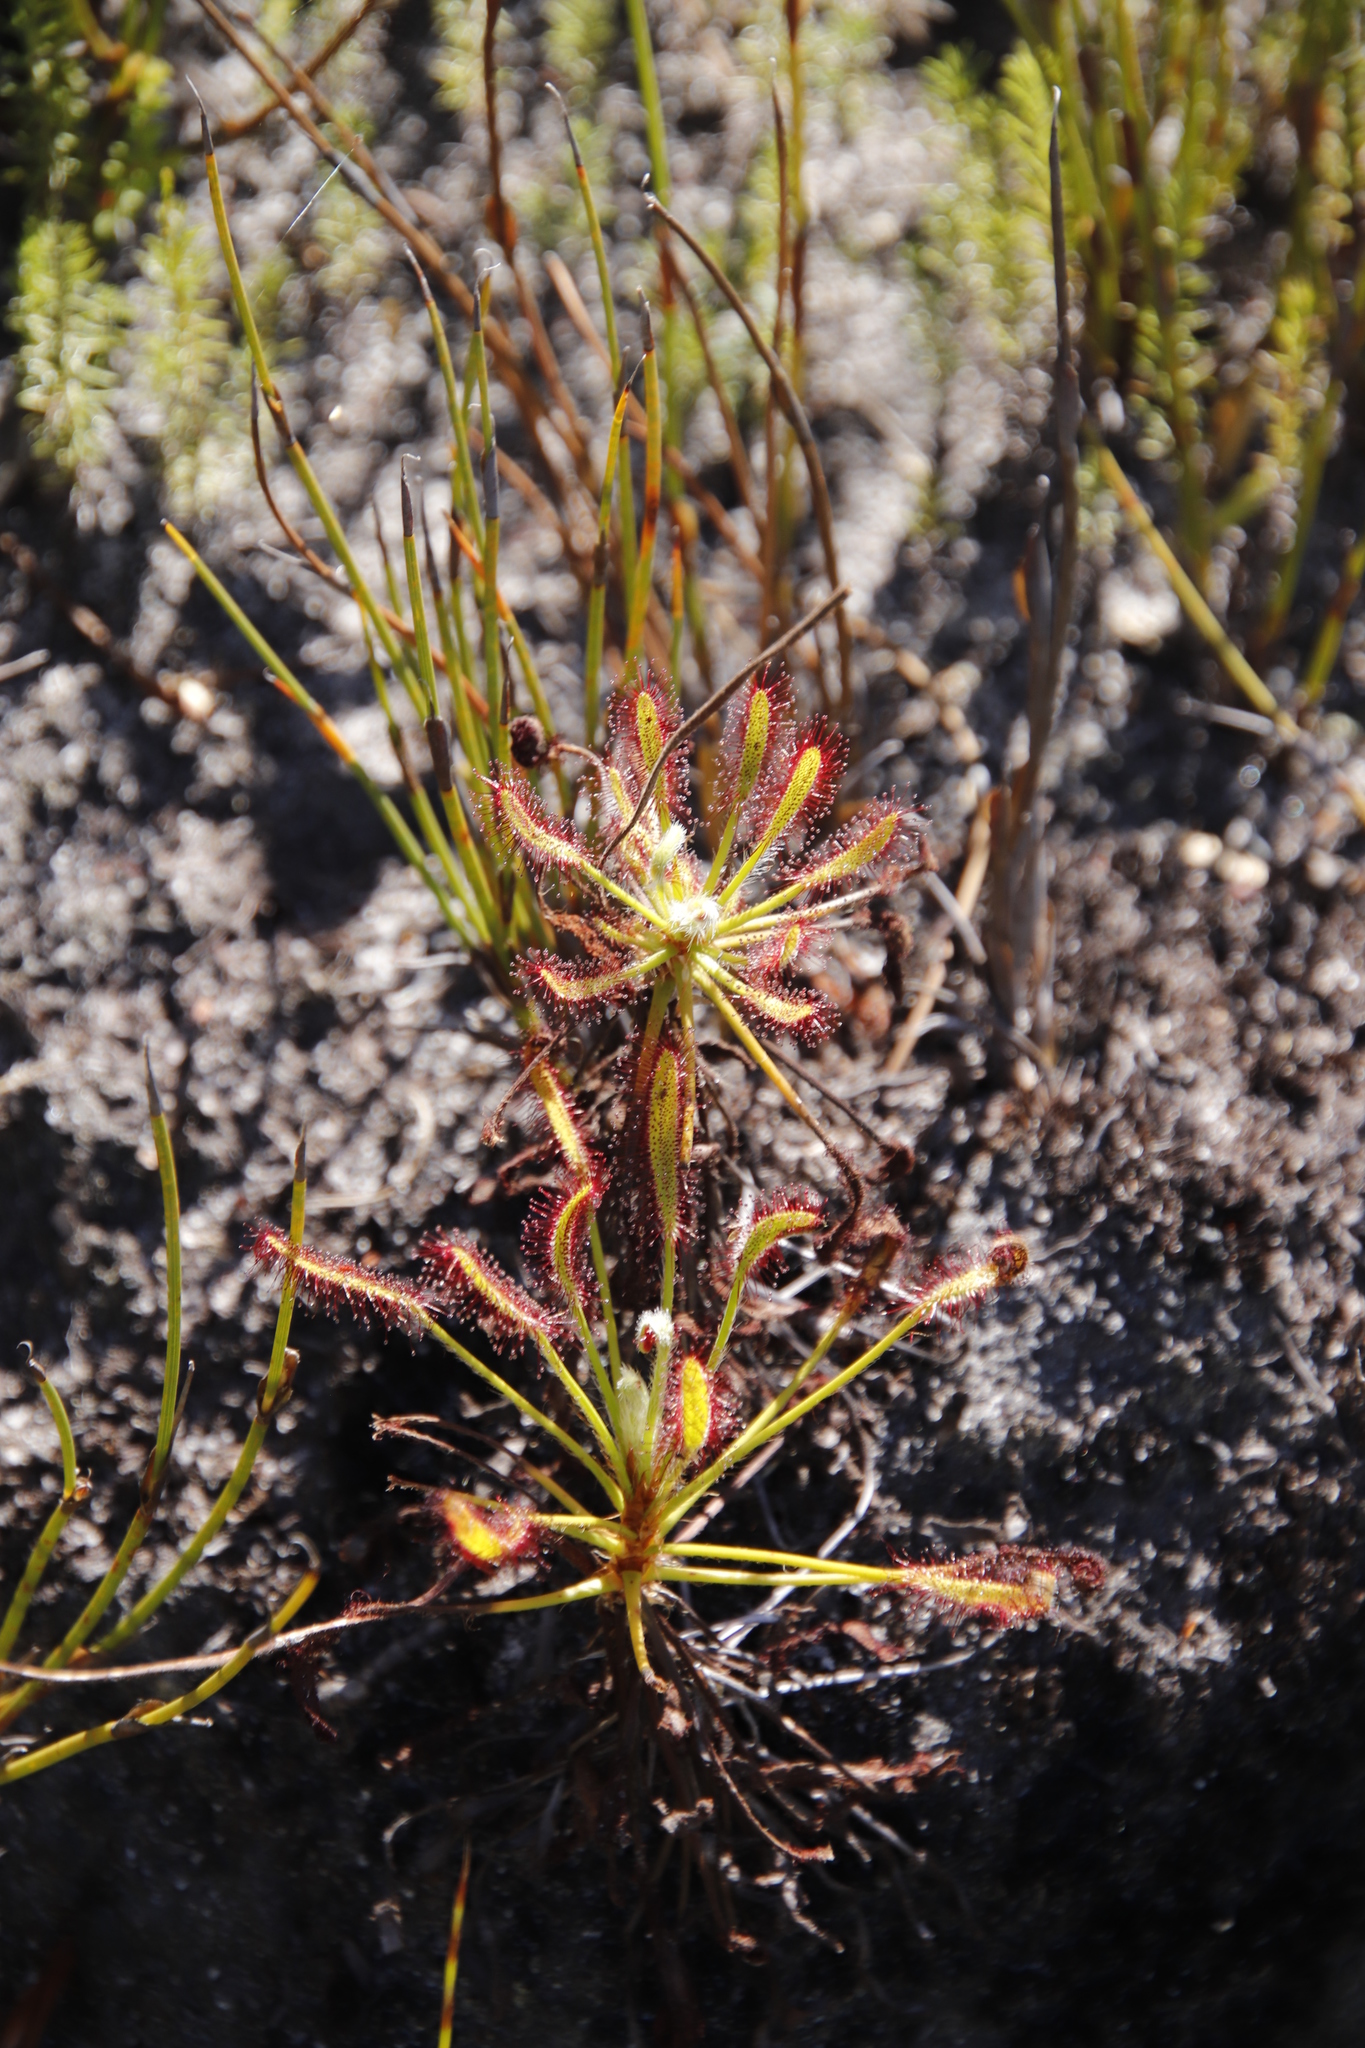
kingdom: Plantae
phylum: Tracheophyta
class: Magnoliopsida
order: Caryophyllales
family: Droseraceae
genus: Drosera
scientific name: Drosera ramentacea
